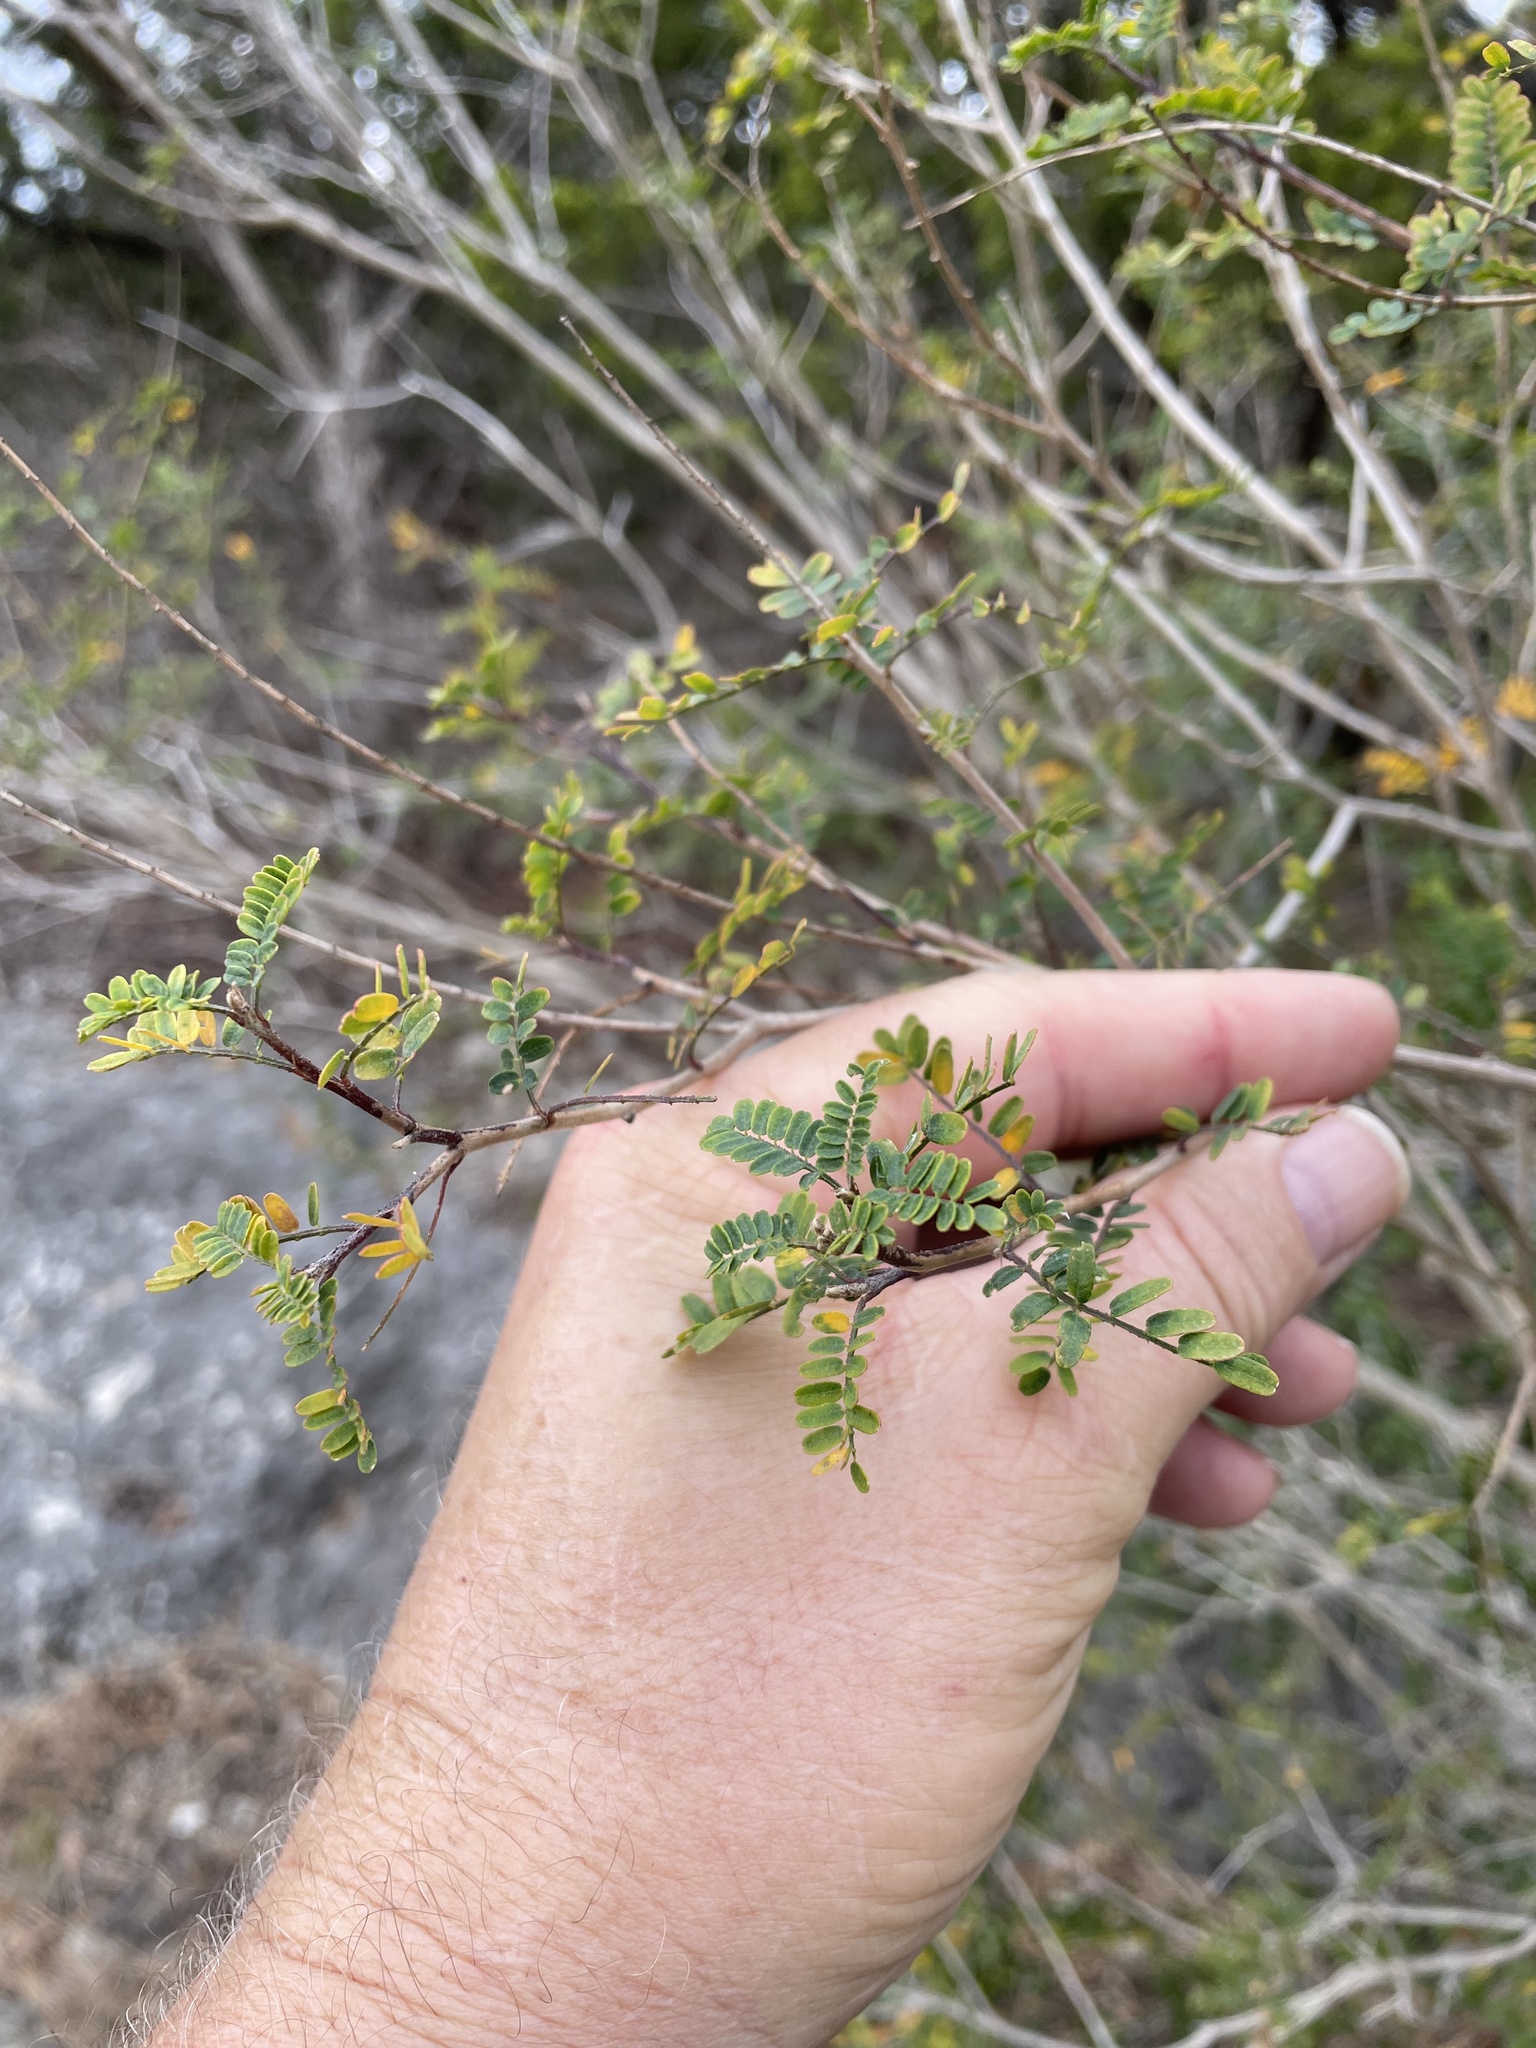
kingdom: Plantae
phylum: Tracheophyta
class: Magnoliopsida
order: Fabales
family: Fabaceae
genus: Eysenhardtia
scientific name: Eysenhardtia texana
